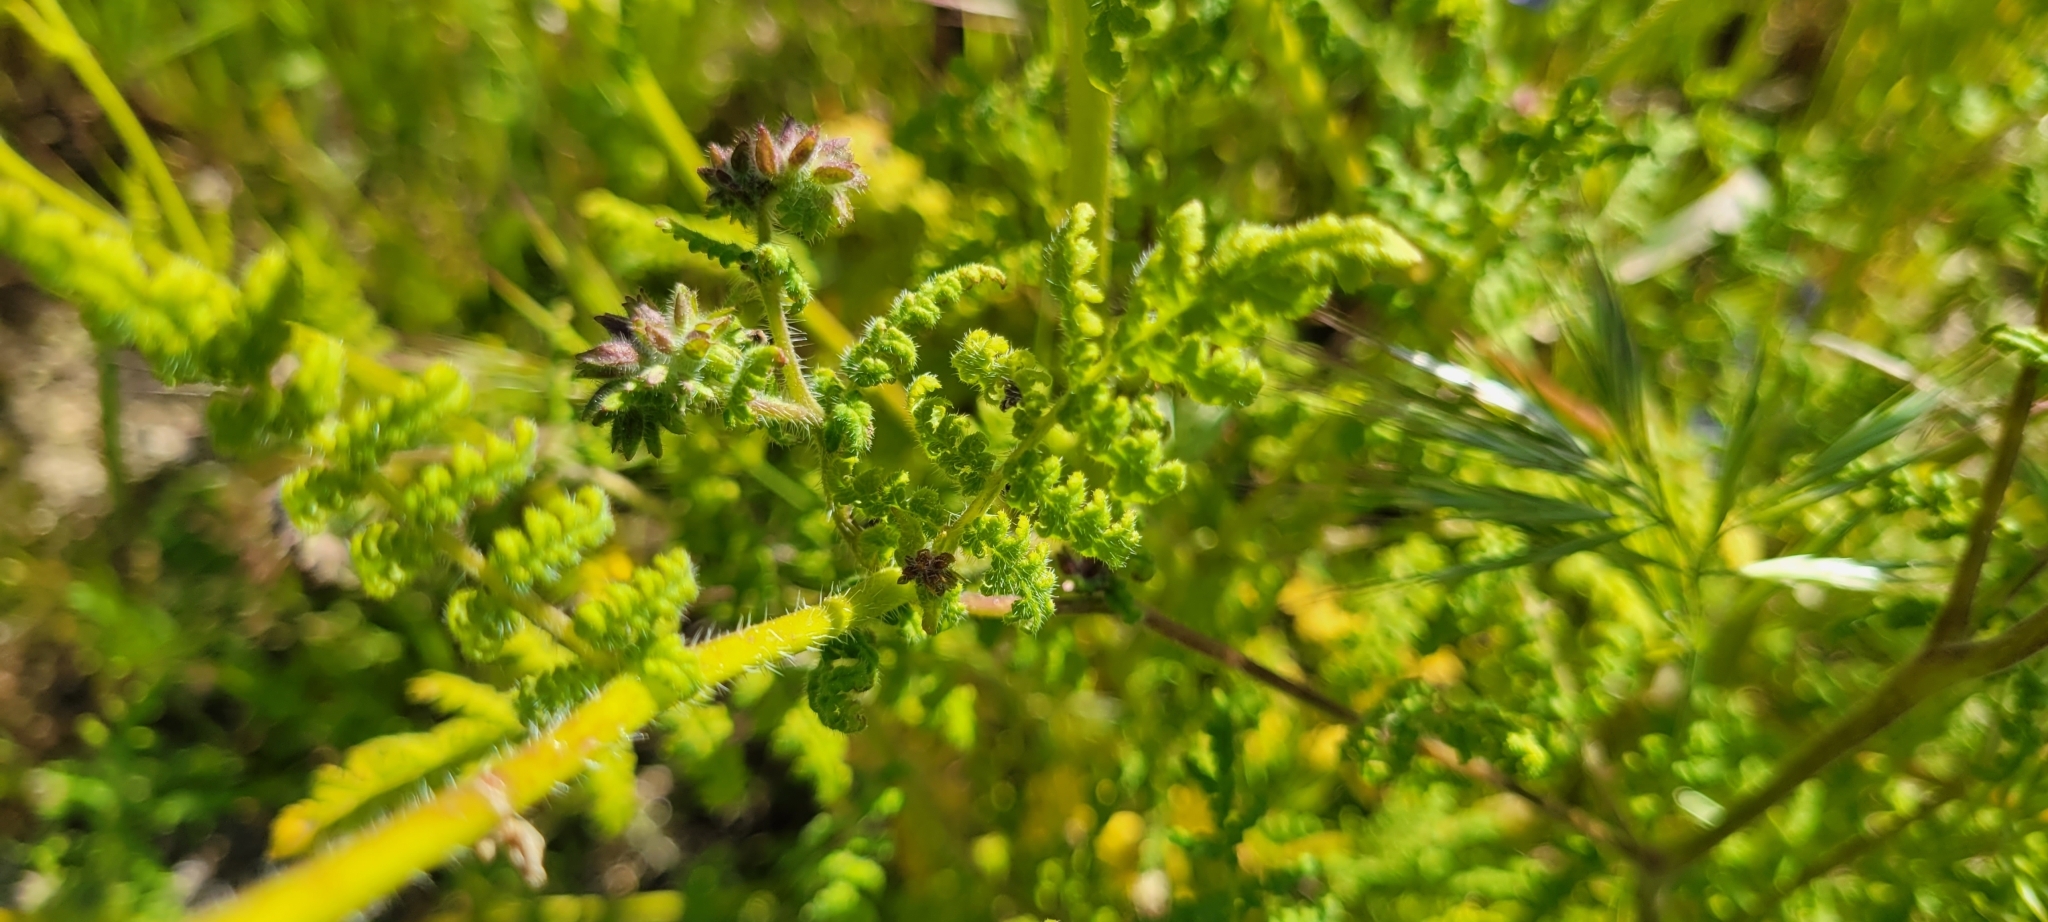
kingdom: Plantae
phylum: Tracheophyta
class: Magnoliopsida
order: Boraginales
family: Hydrophyllaceae
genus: Phacelia
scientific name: Phacelia distans
